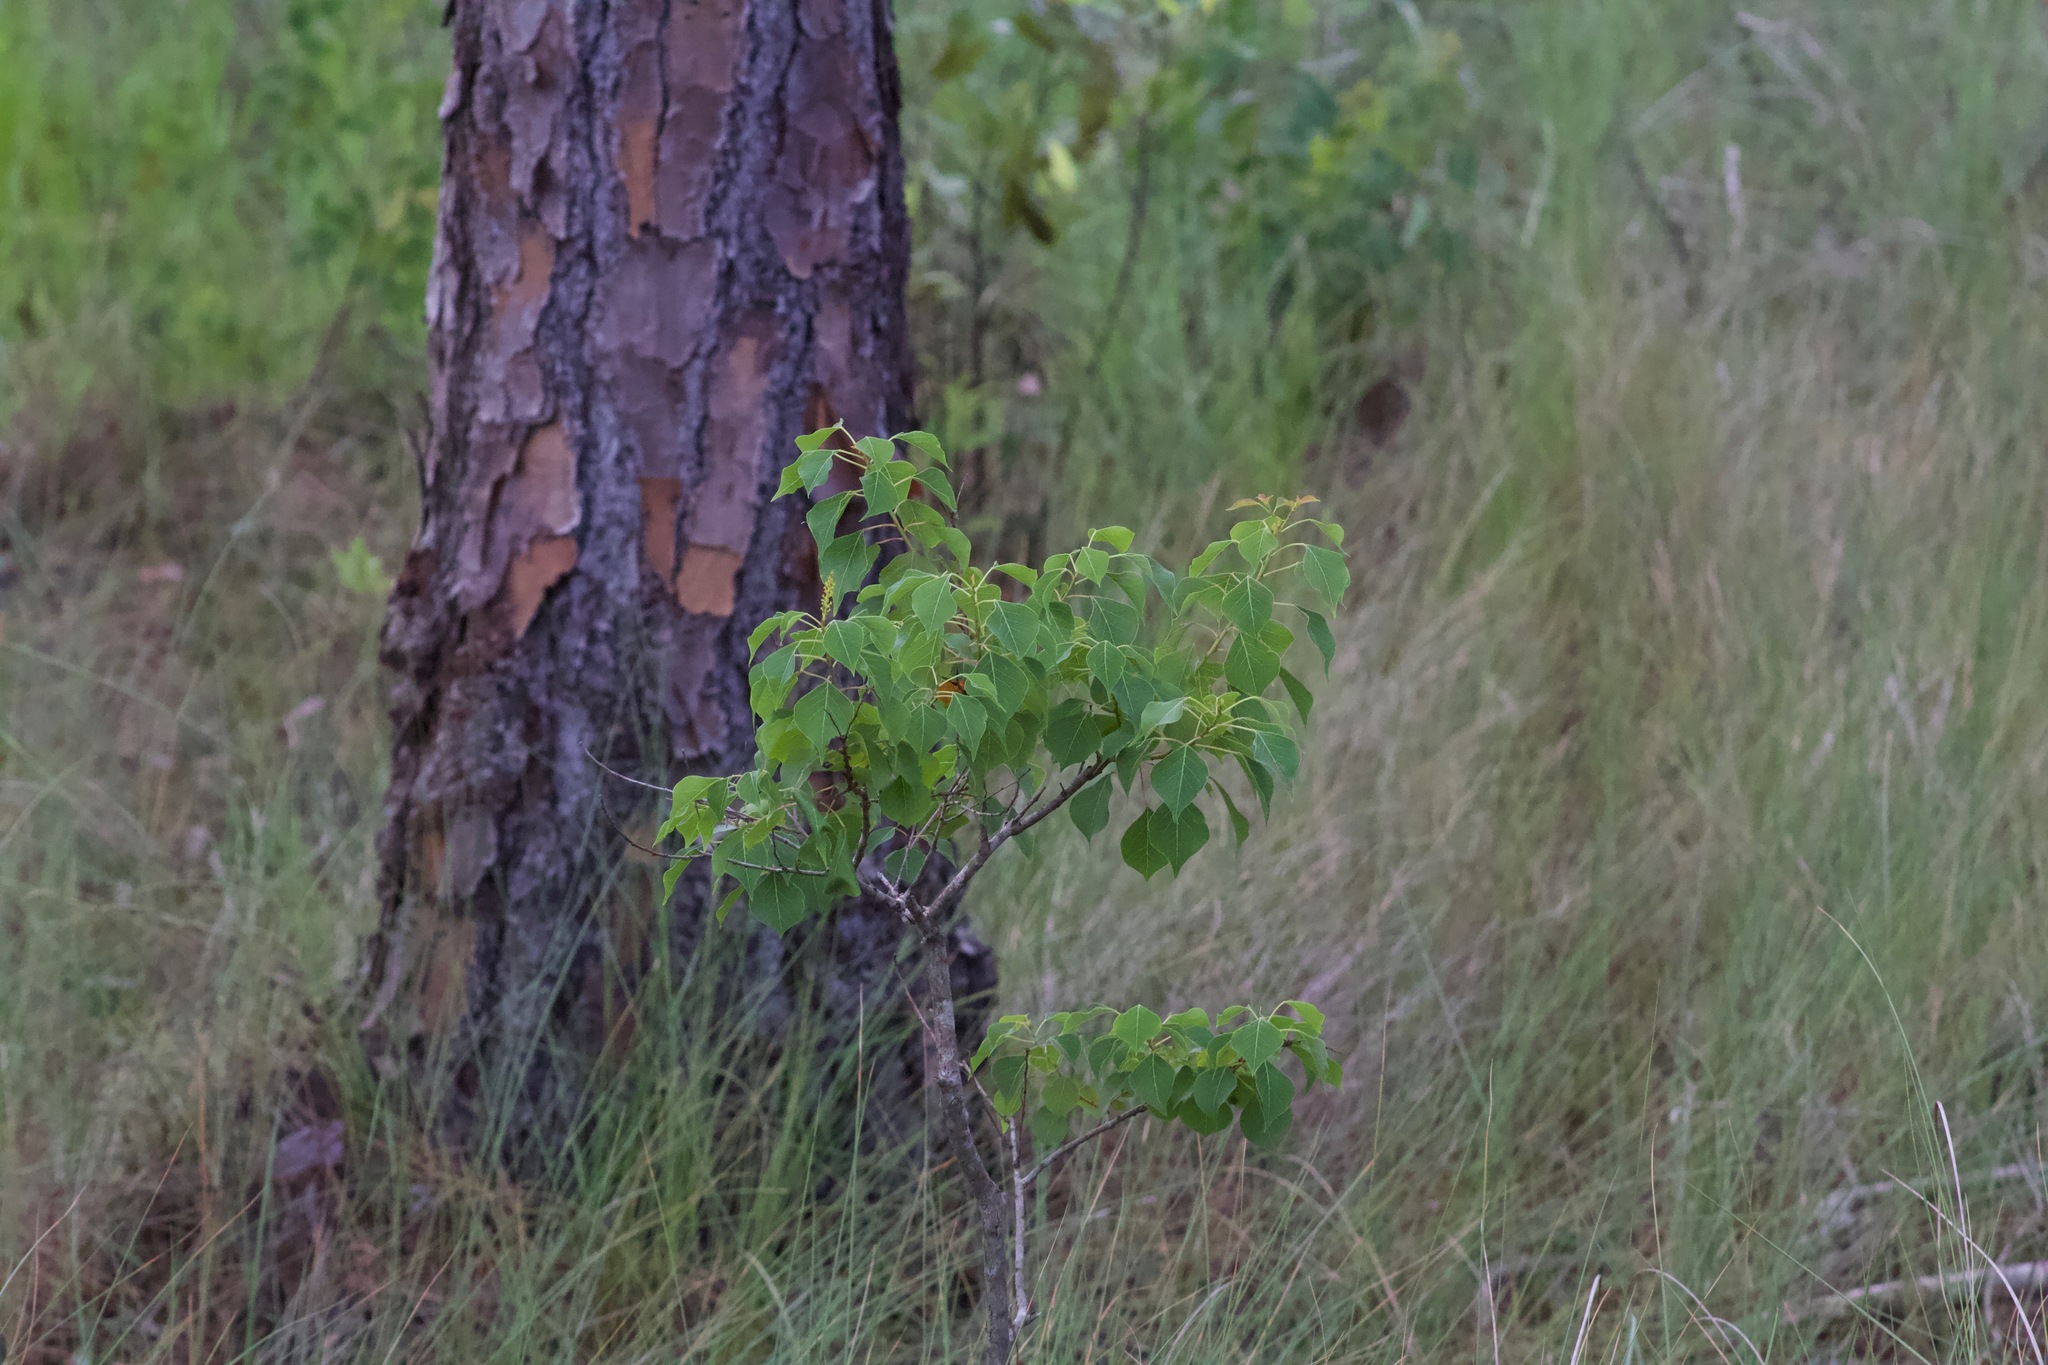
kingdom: Plantae
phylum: Tracheophyta
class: Magnoliopsida
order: Malpighiales
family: Euphorbiaceae
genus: Triadica
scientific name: Triadica sebifera
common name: Chinese tallow
